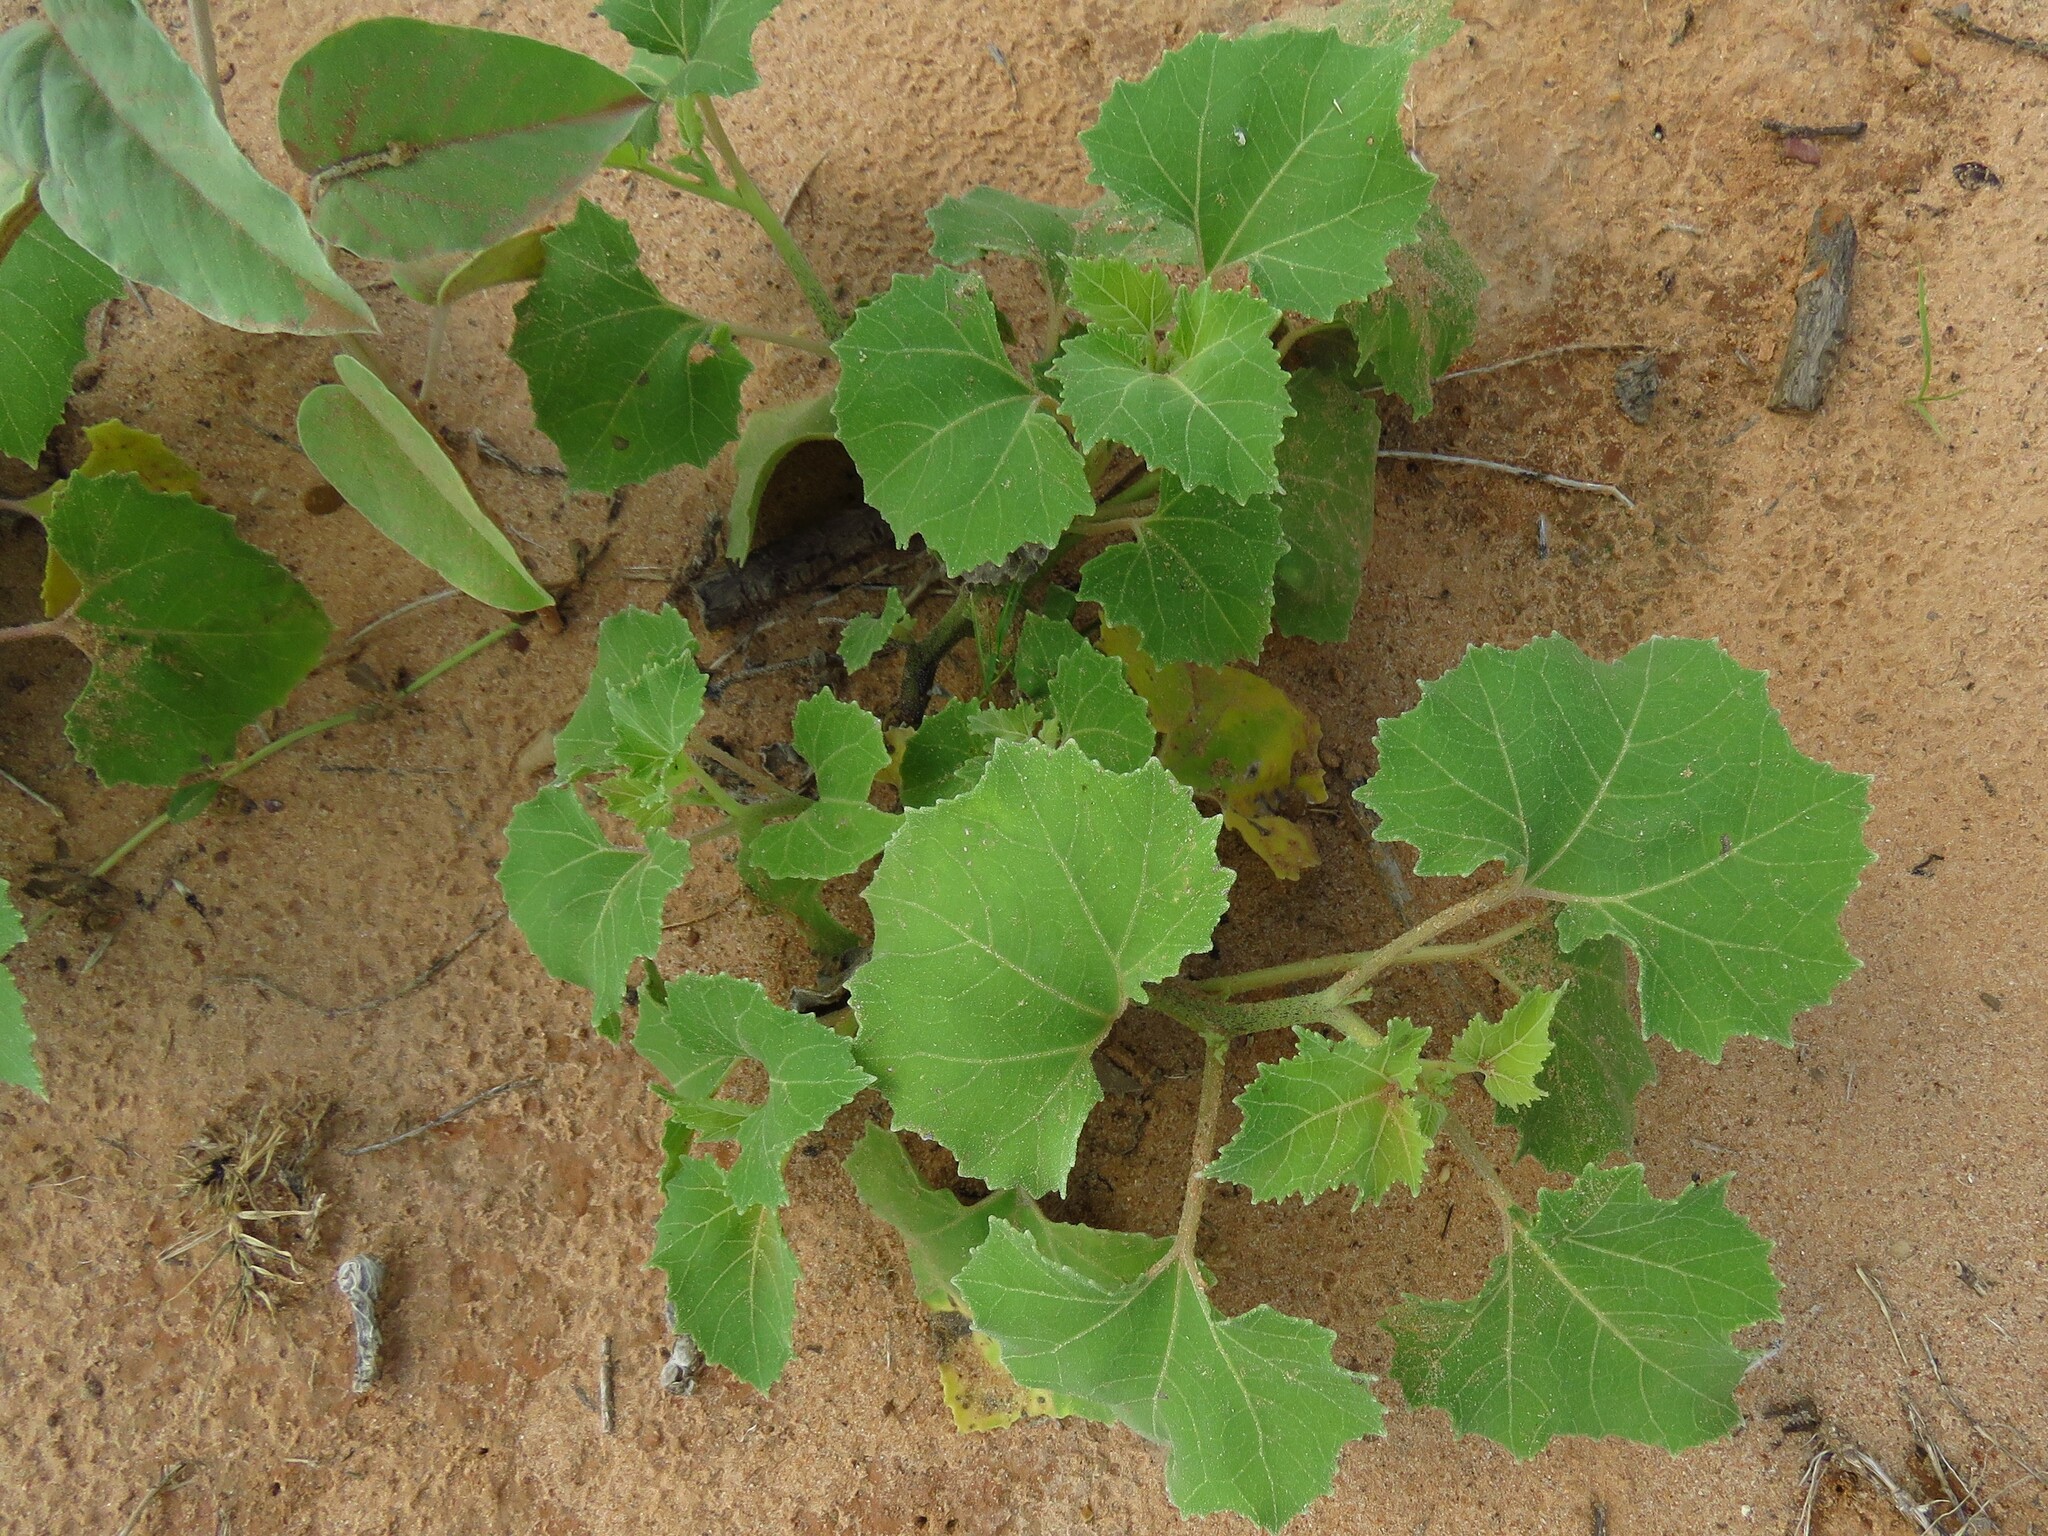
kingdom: Plantae
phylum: Tracheophyta
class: Magnoliopsida
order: Asterales
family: Asteraceae
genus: Xanthium
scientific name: Xanthium strumarium
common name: Rough cocklebur
